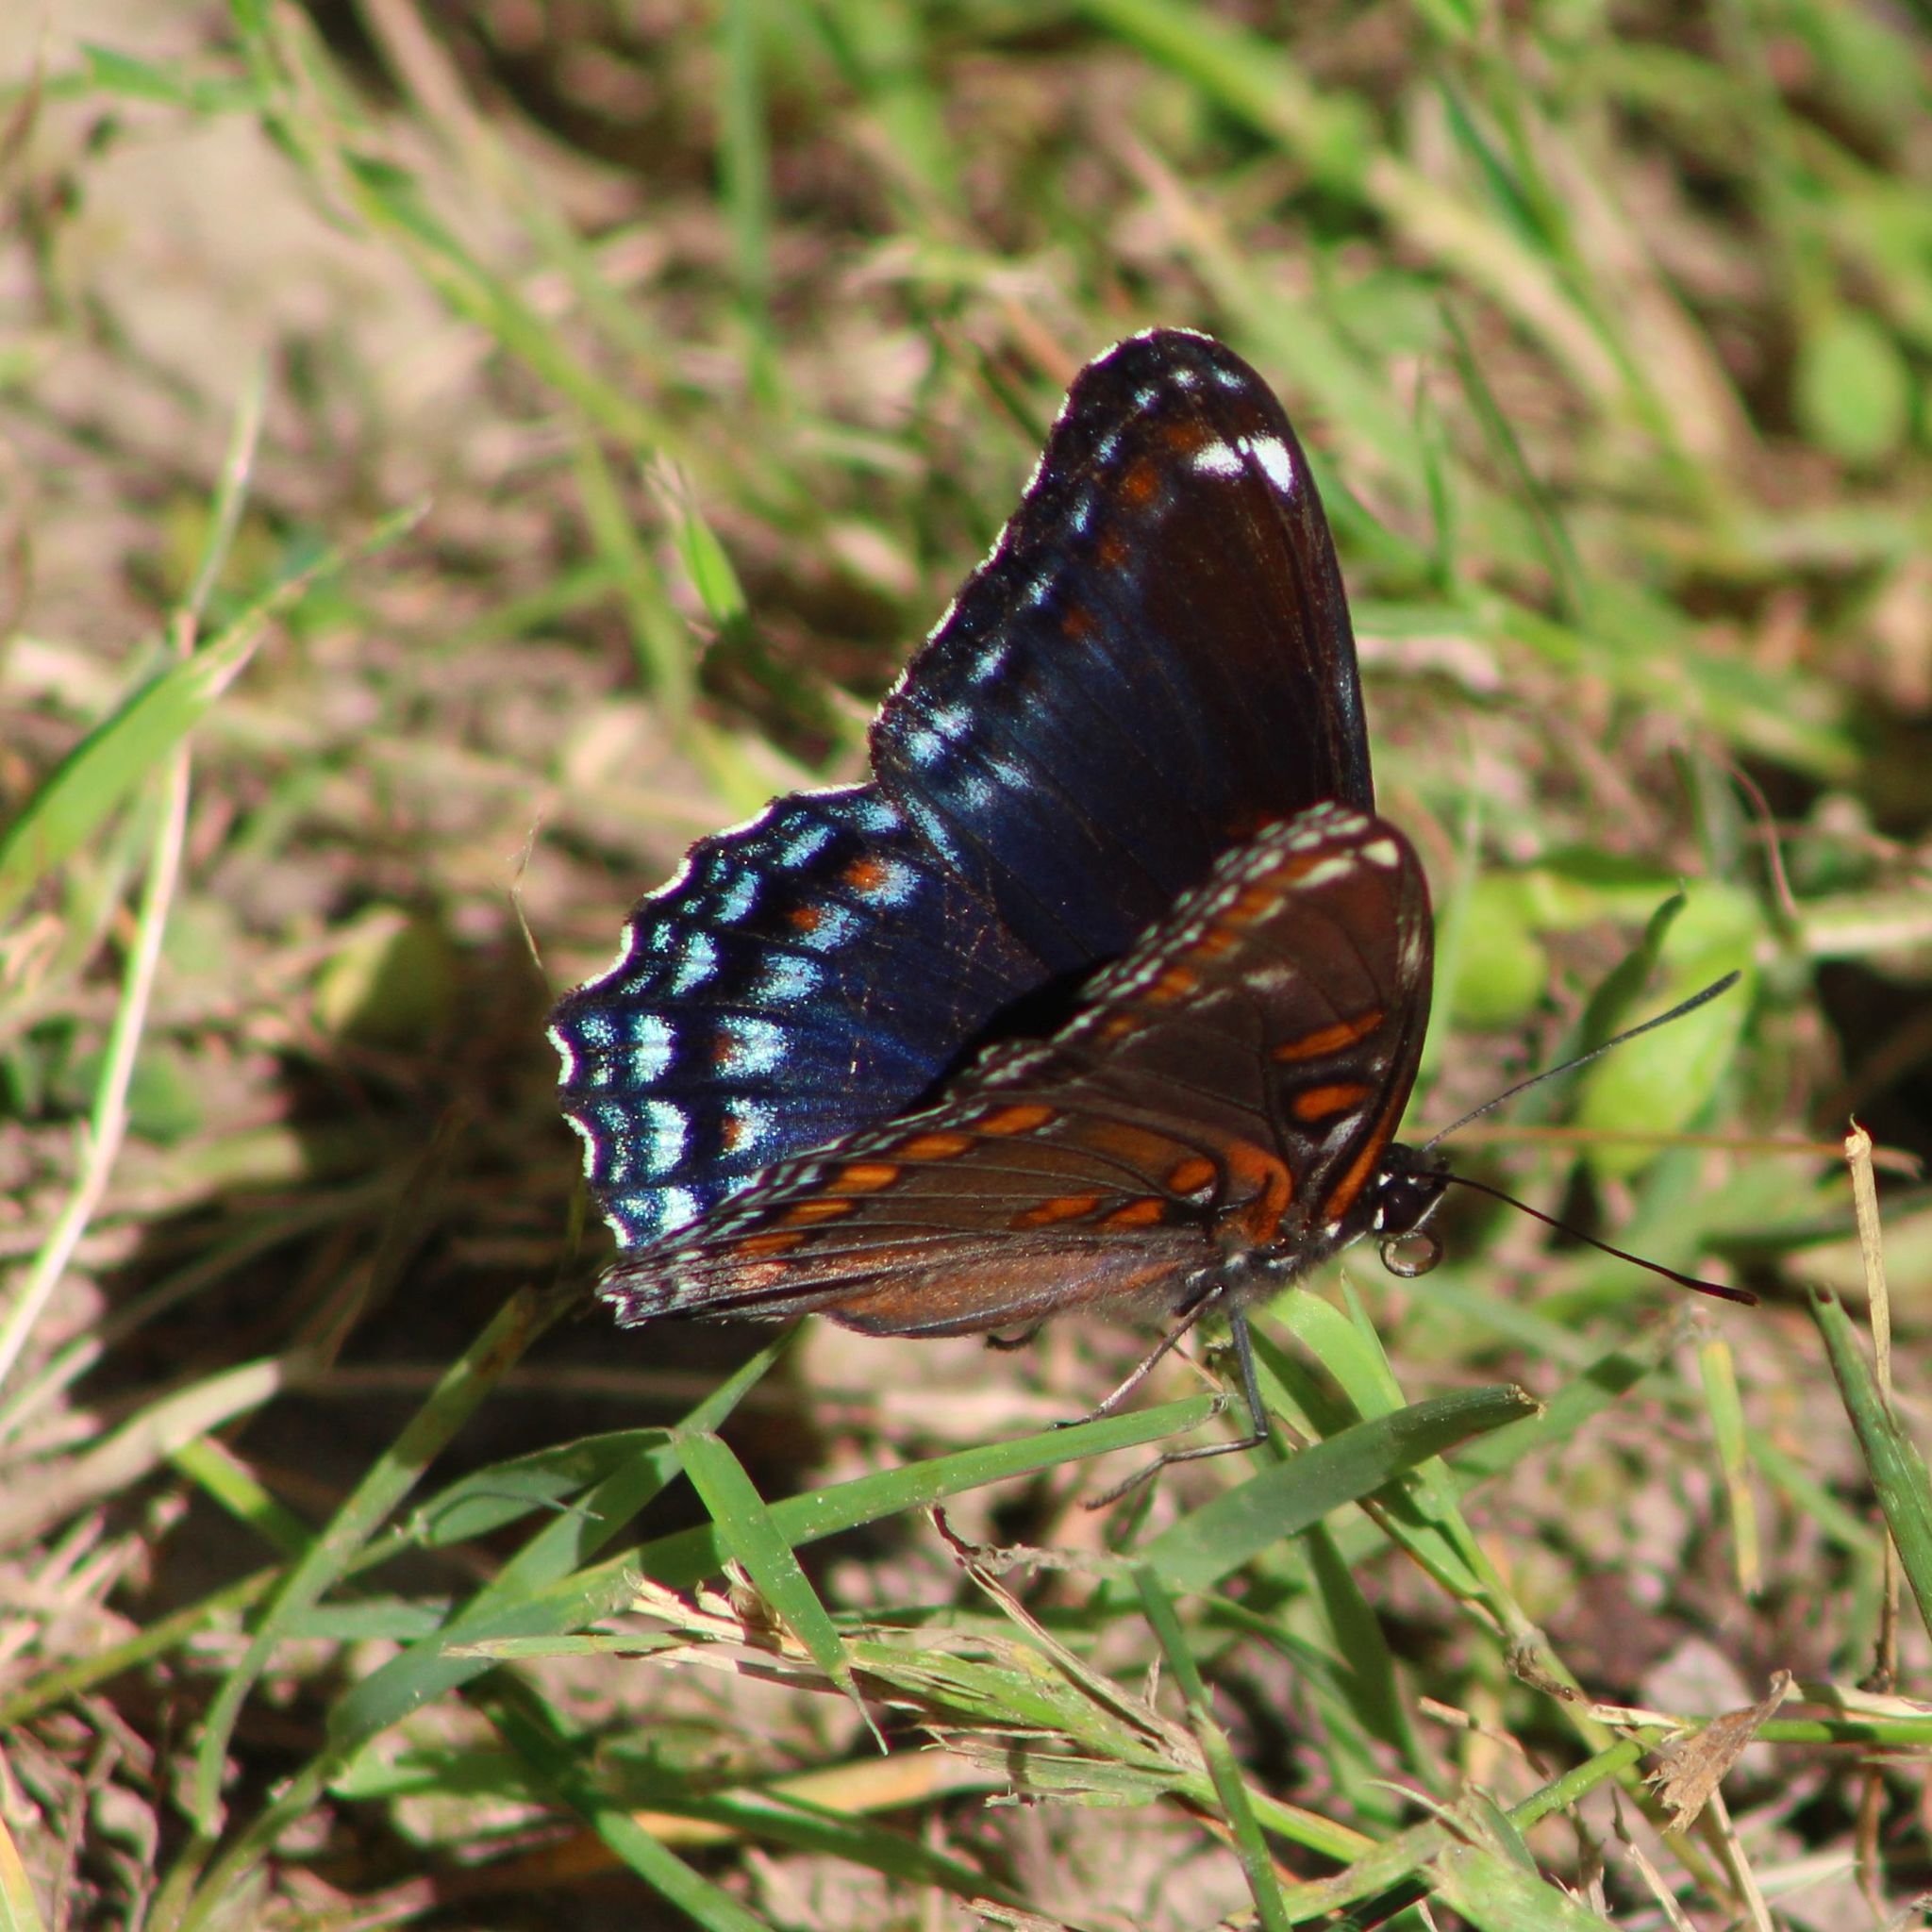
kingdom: Animalia
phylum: Arthropoda
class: Insecta
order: Lepidoptera
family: Nymphalidae
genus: Limenitis
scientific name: Limenitis astyanax
